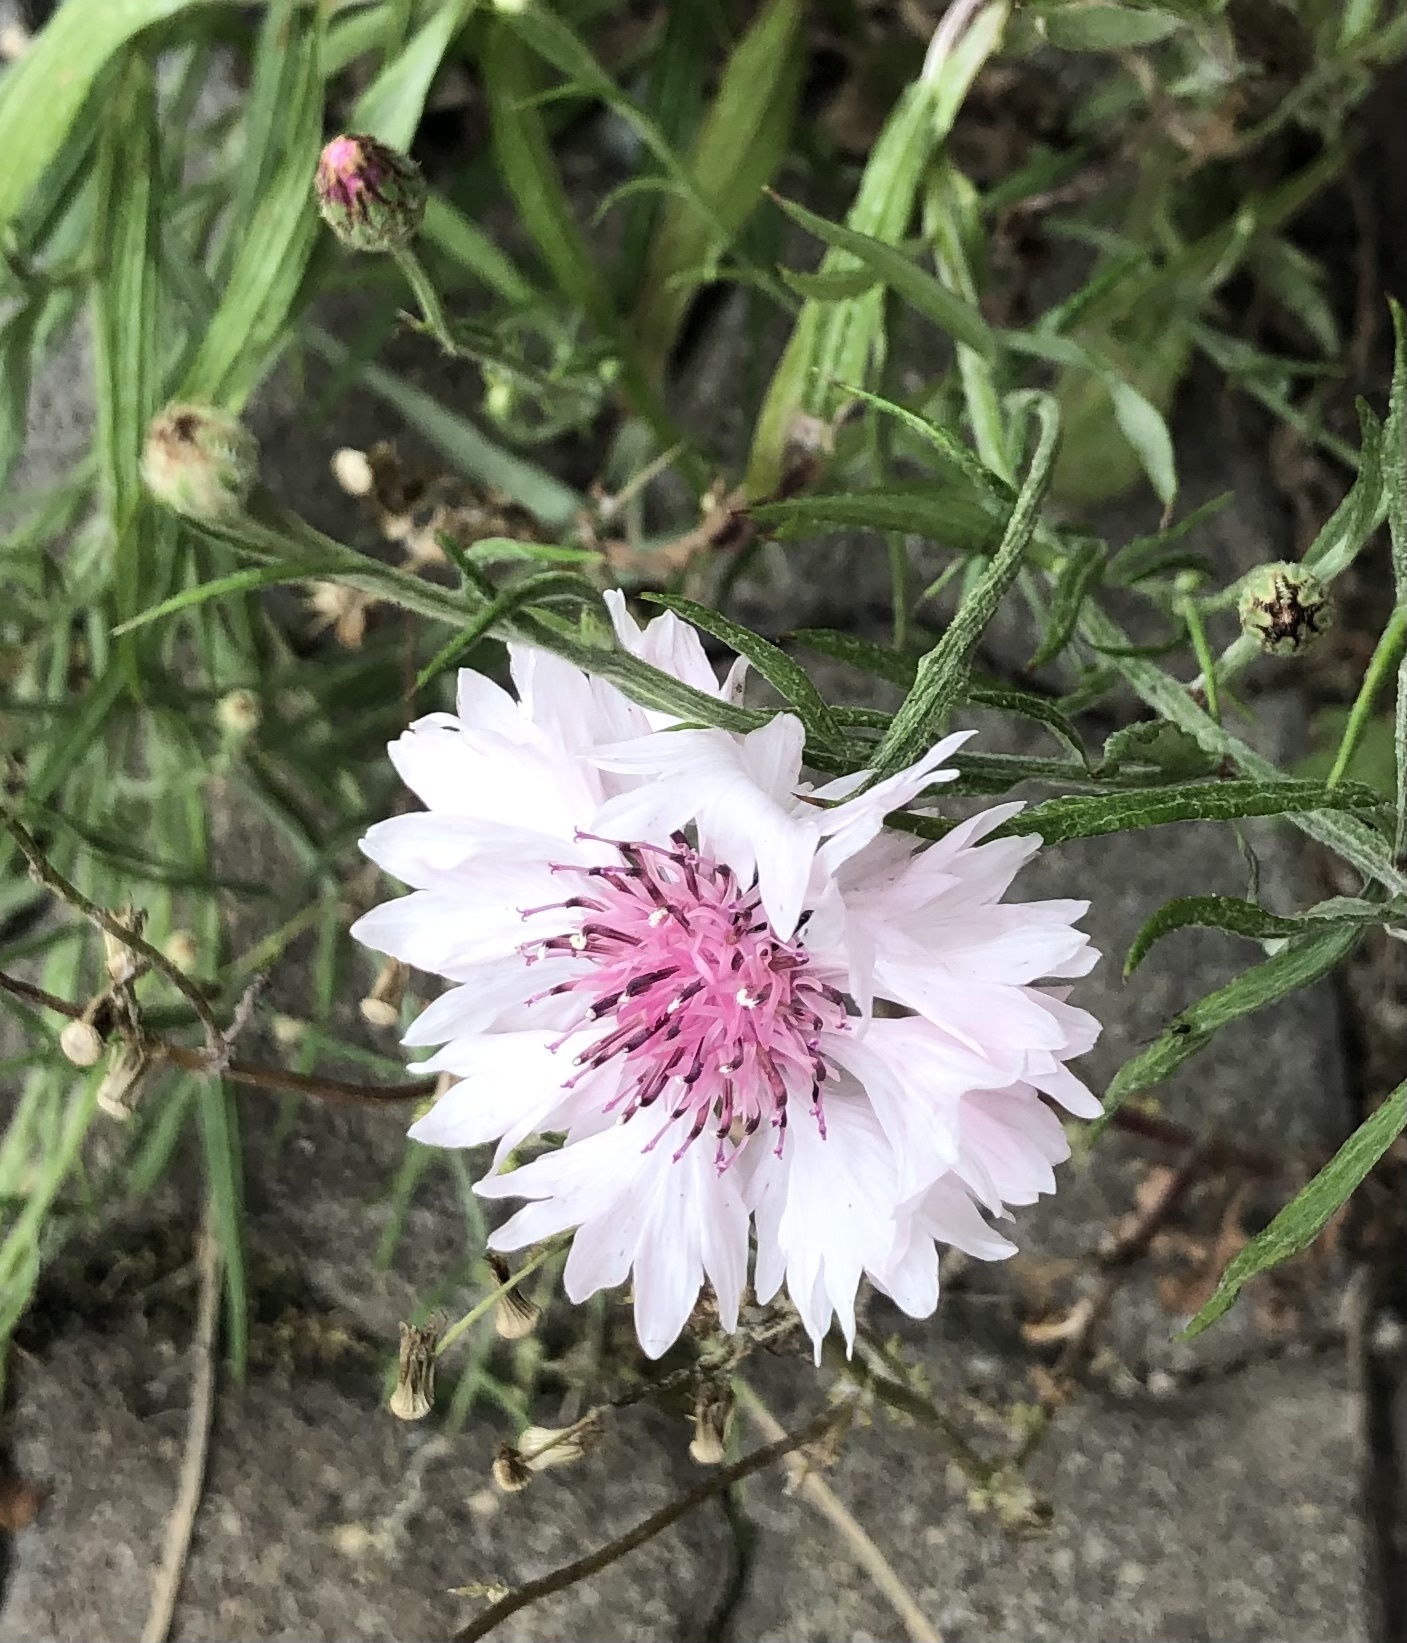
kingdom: Plantae
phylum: Tracheophyta
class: Magnoliopsida
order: Asterales
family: Asteraceae
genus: Centaurea
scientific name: Centaurea cyanus
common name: Cornflower
